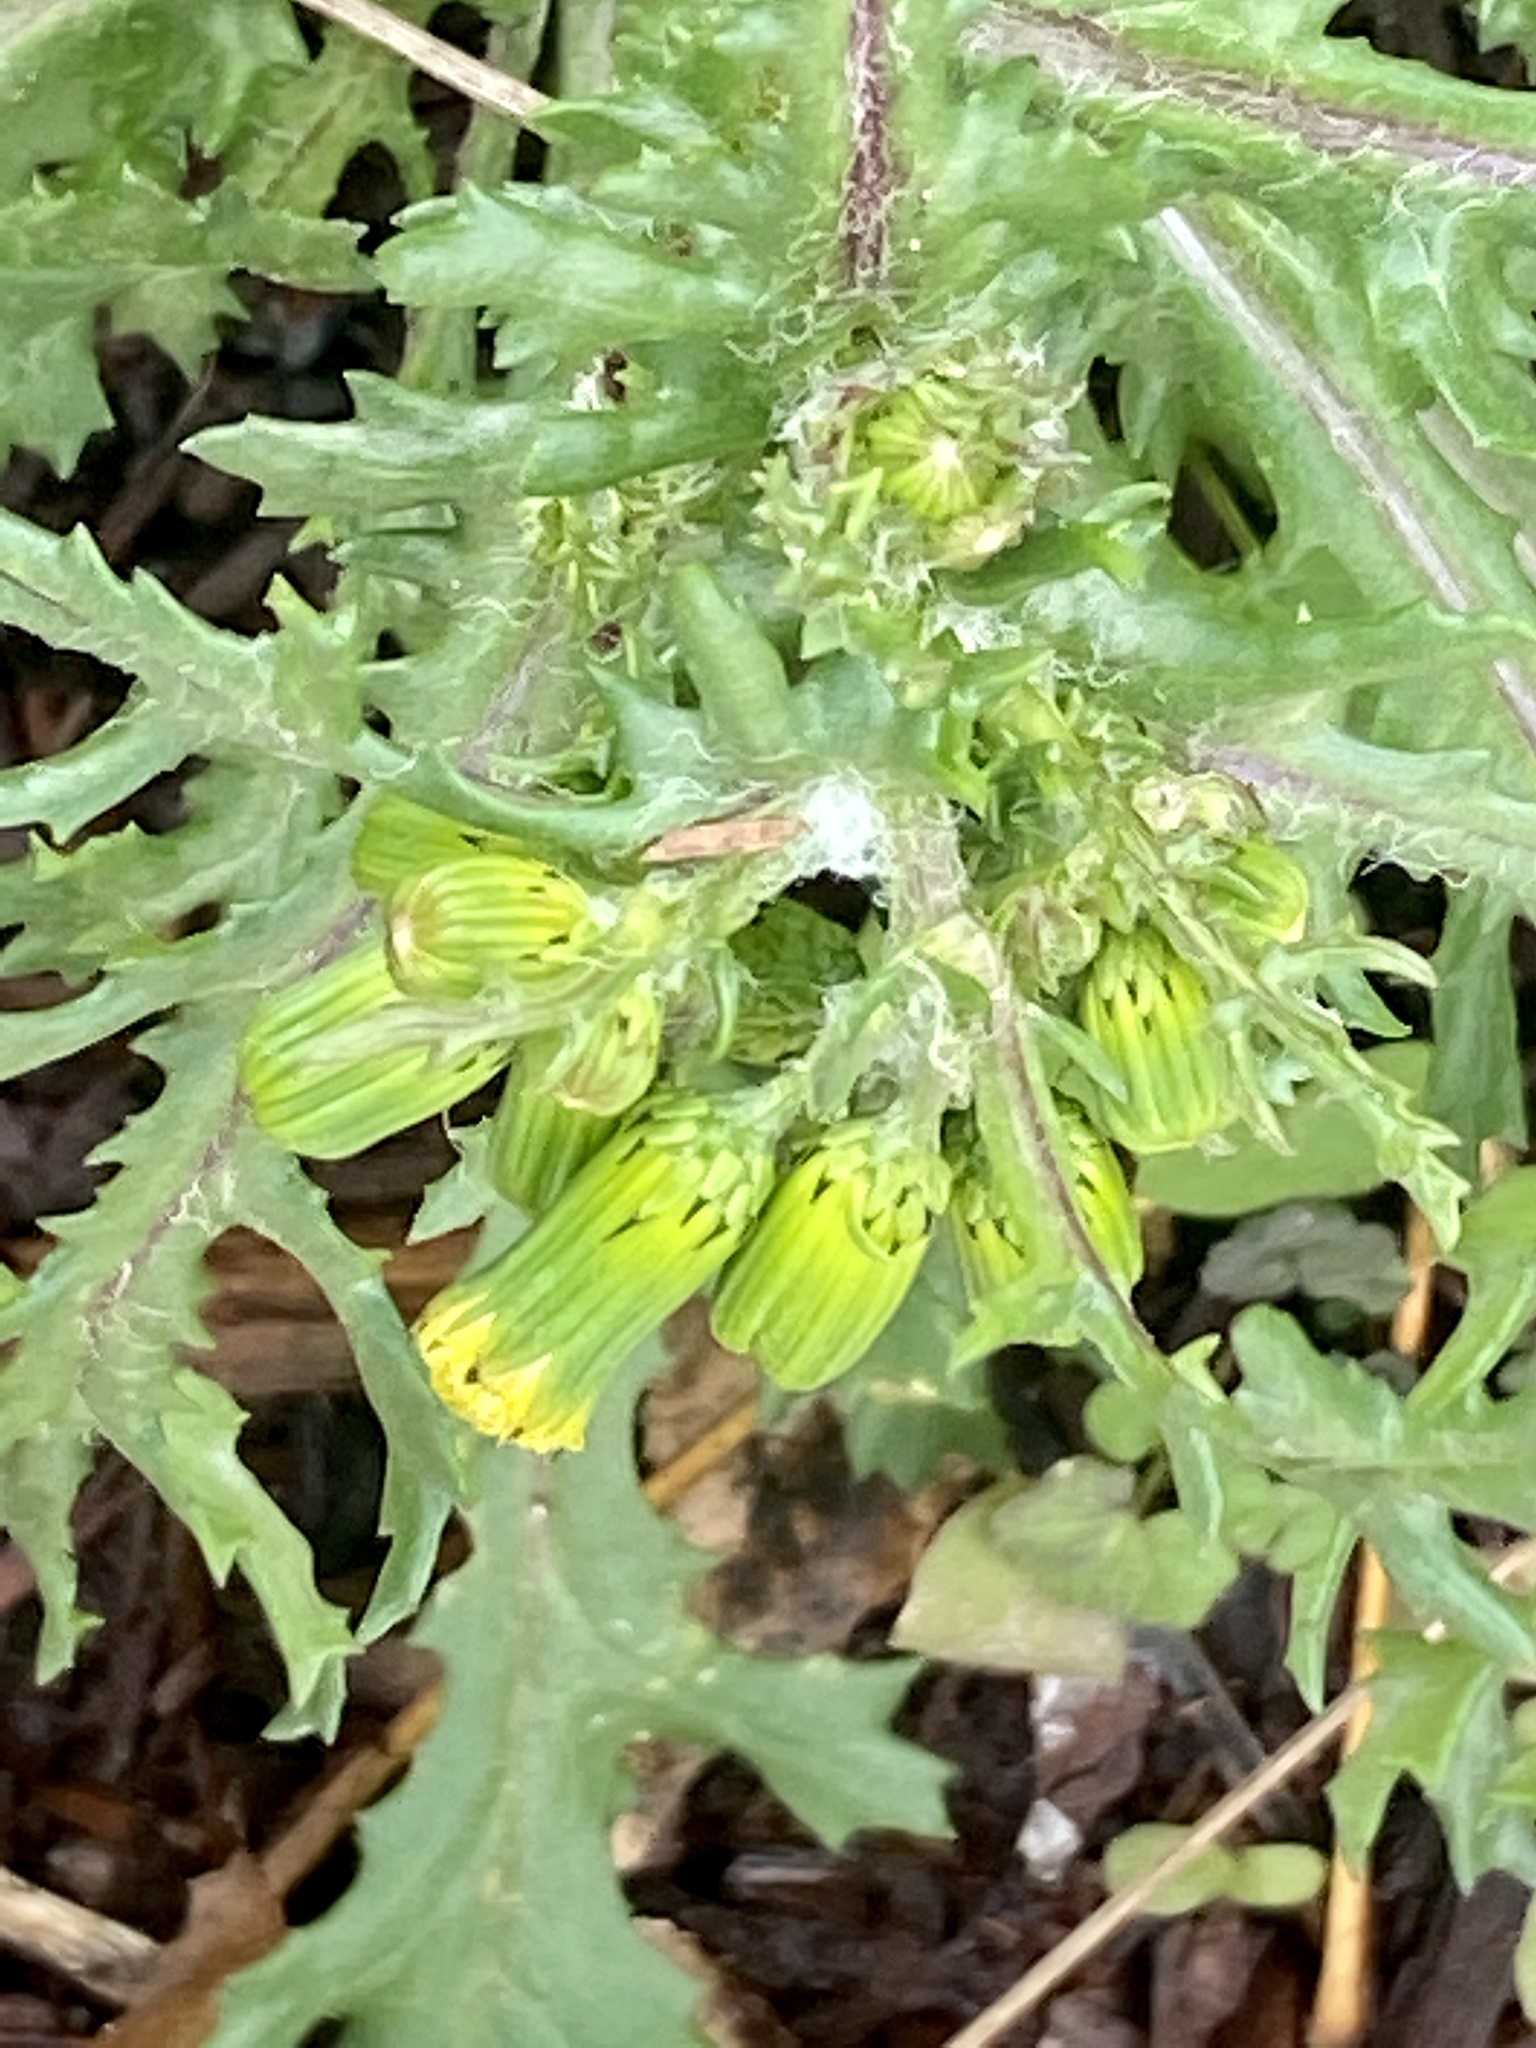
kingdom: Plantae
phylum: Tracheophyta
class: Magnoliopsida
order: Asterales
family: Asteraceae
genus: Senecio
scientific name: Senecio vulgaris
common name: Old-man-in-the-spring
